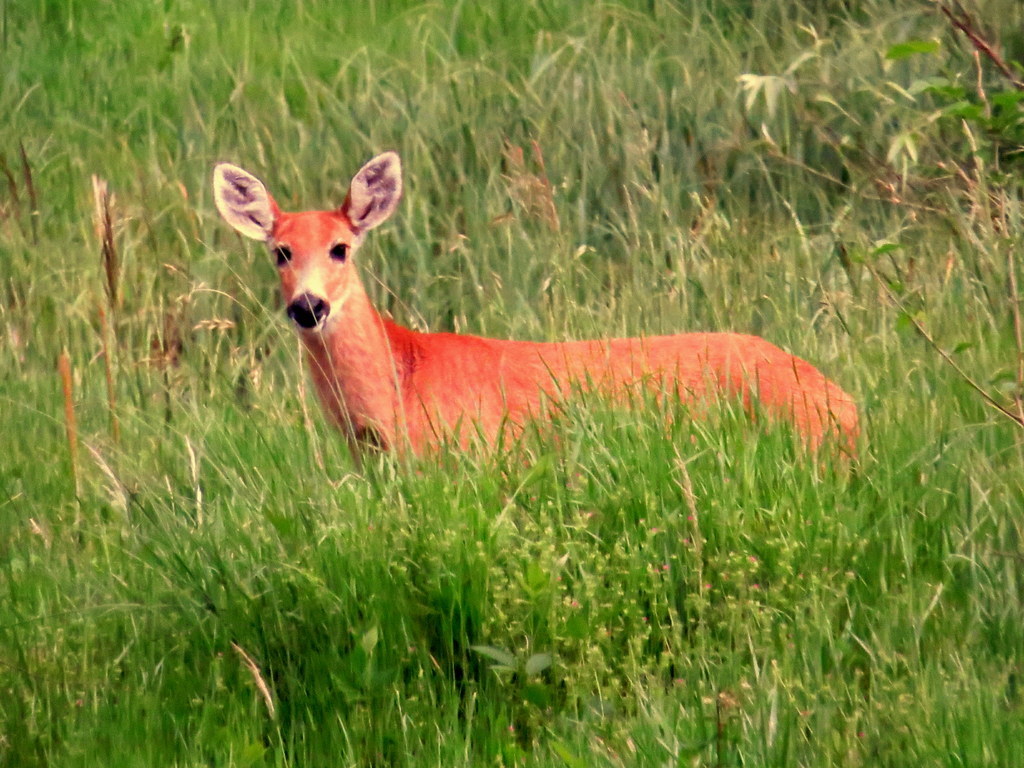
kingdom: Animalia
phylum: Chordata
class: Mammalia
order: Artiodactyla
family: Cervidae
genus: Blastocerus
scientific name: Blastocerus dichotomus
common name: Marsh deer
